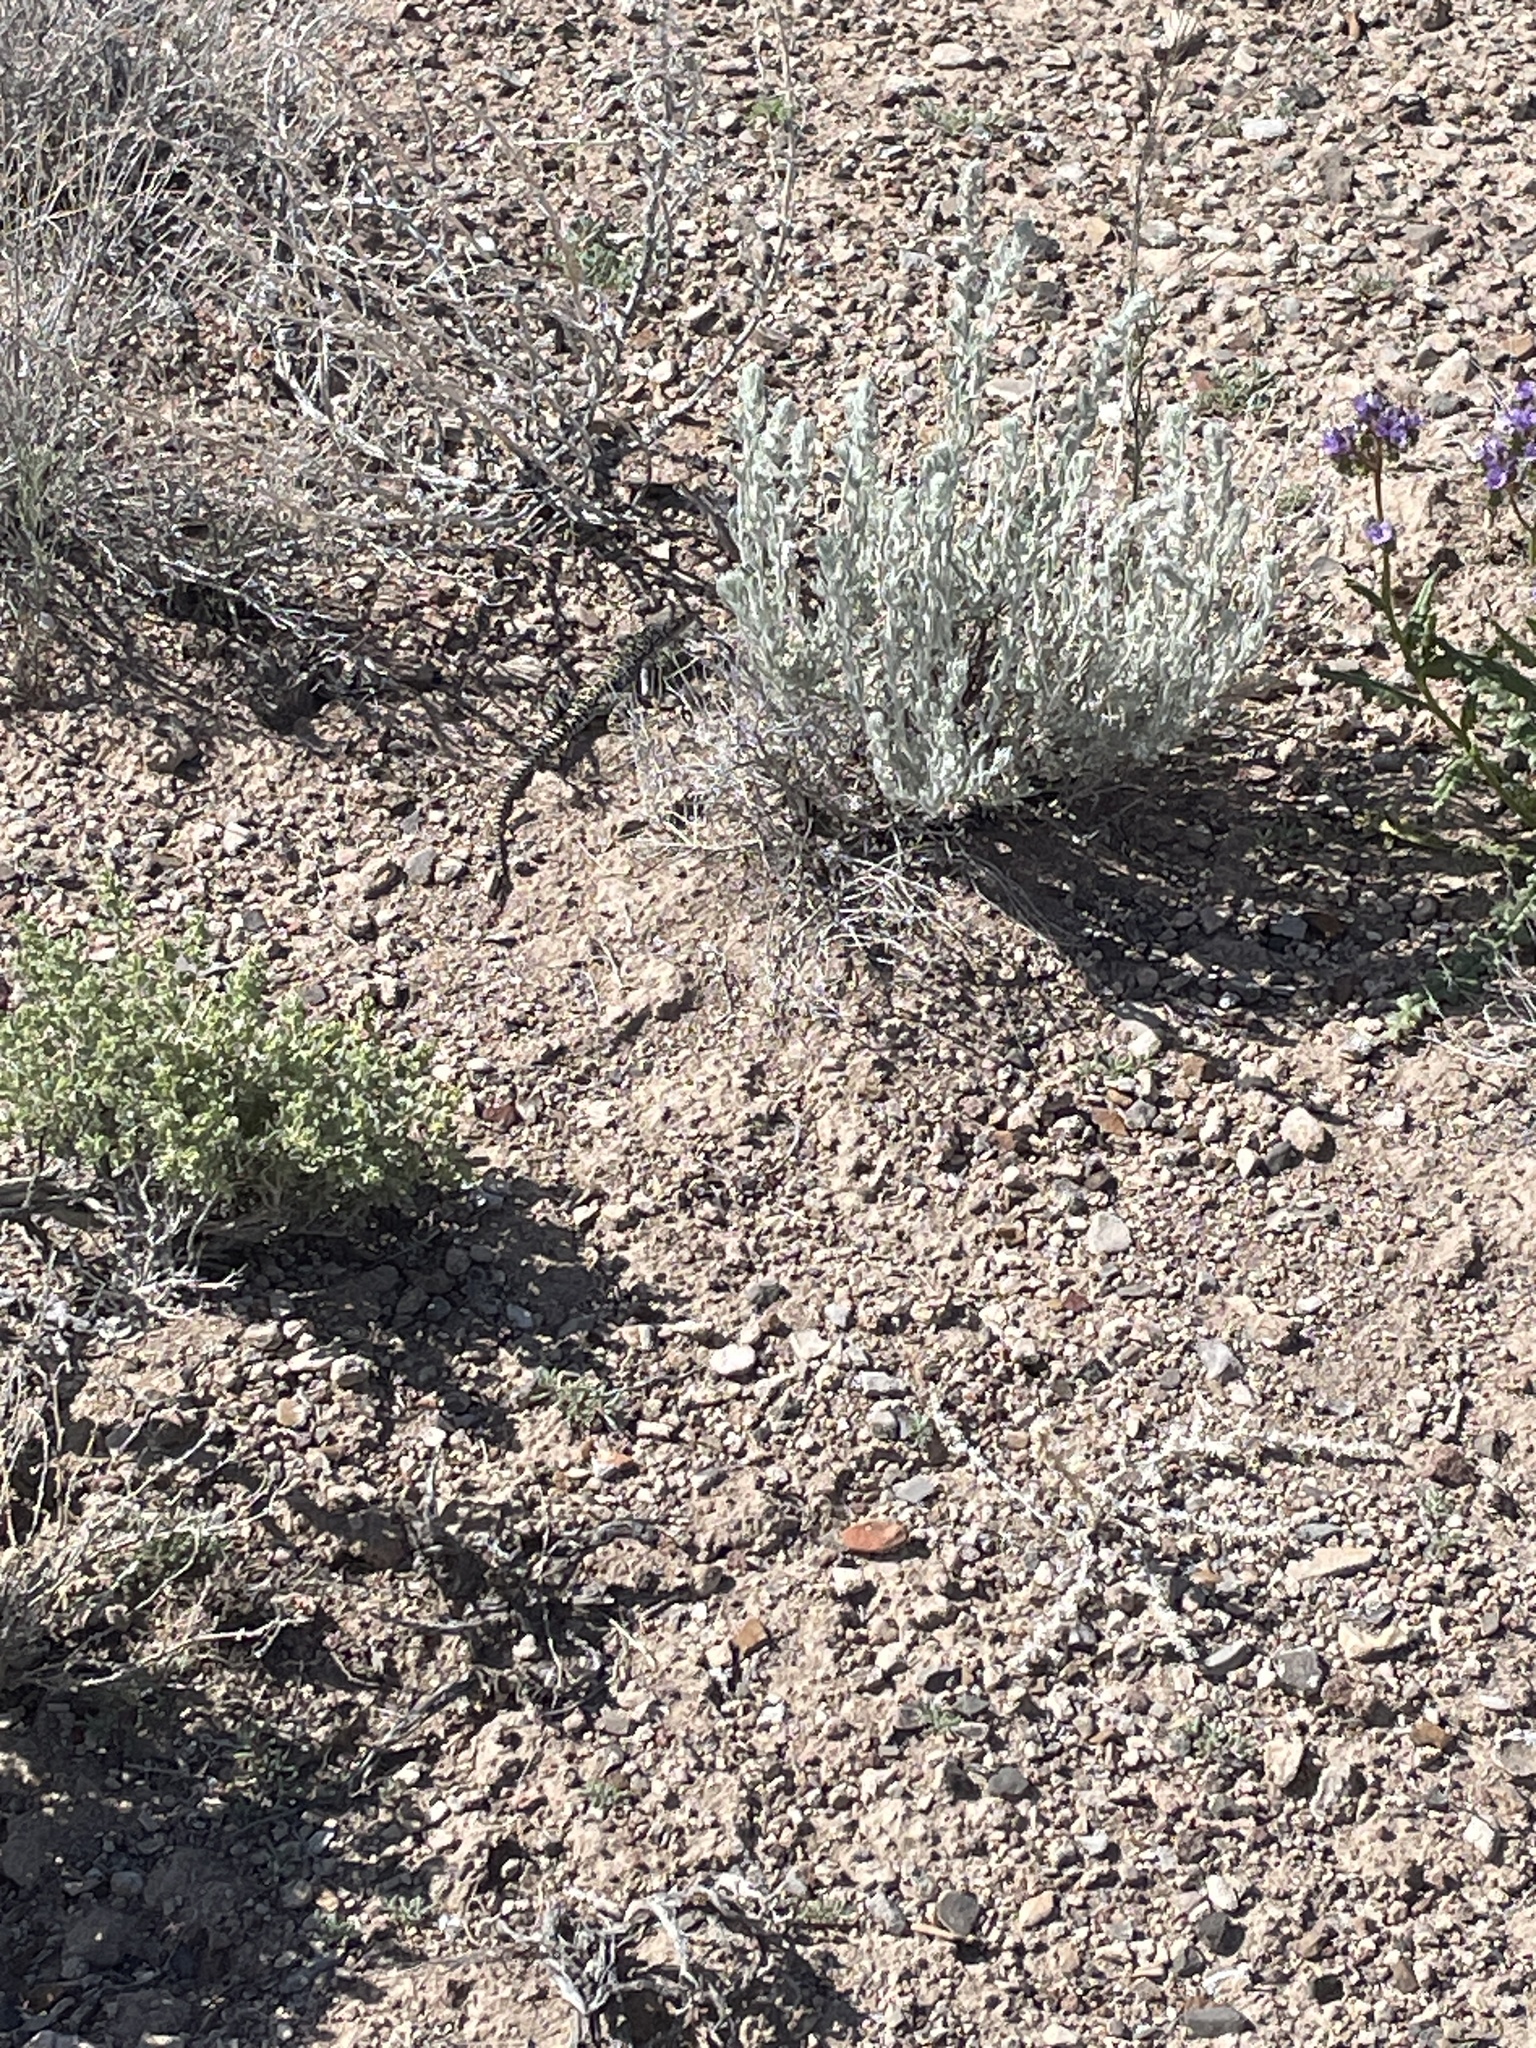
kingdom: Animalia
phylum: Chordata
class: Squamata
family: Crotaphytidae
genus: Gambelia
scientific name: Gambelia wislizenii
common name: Longnose leopard lizard
